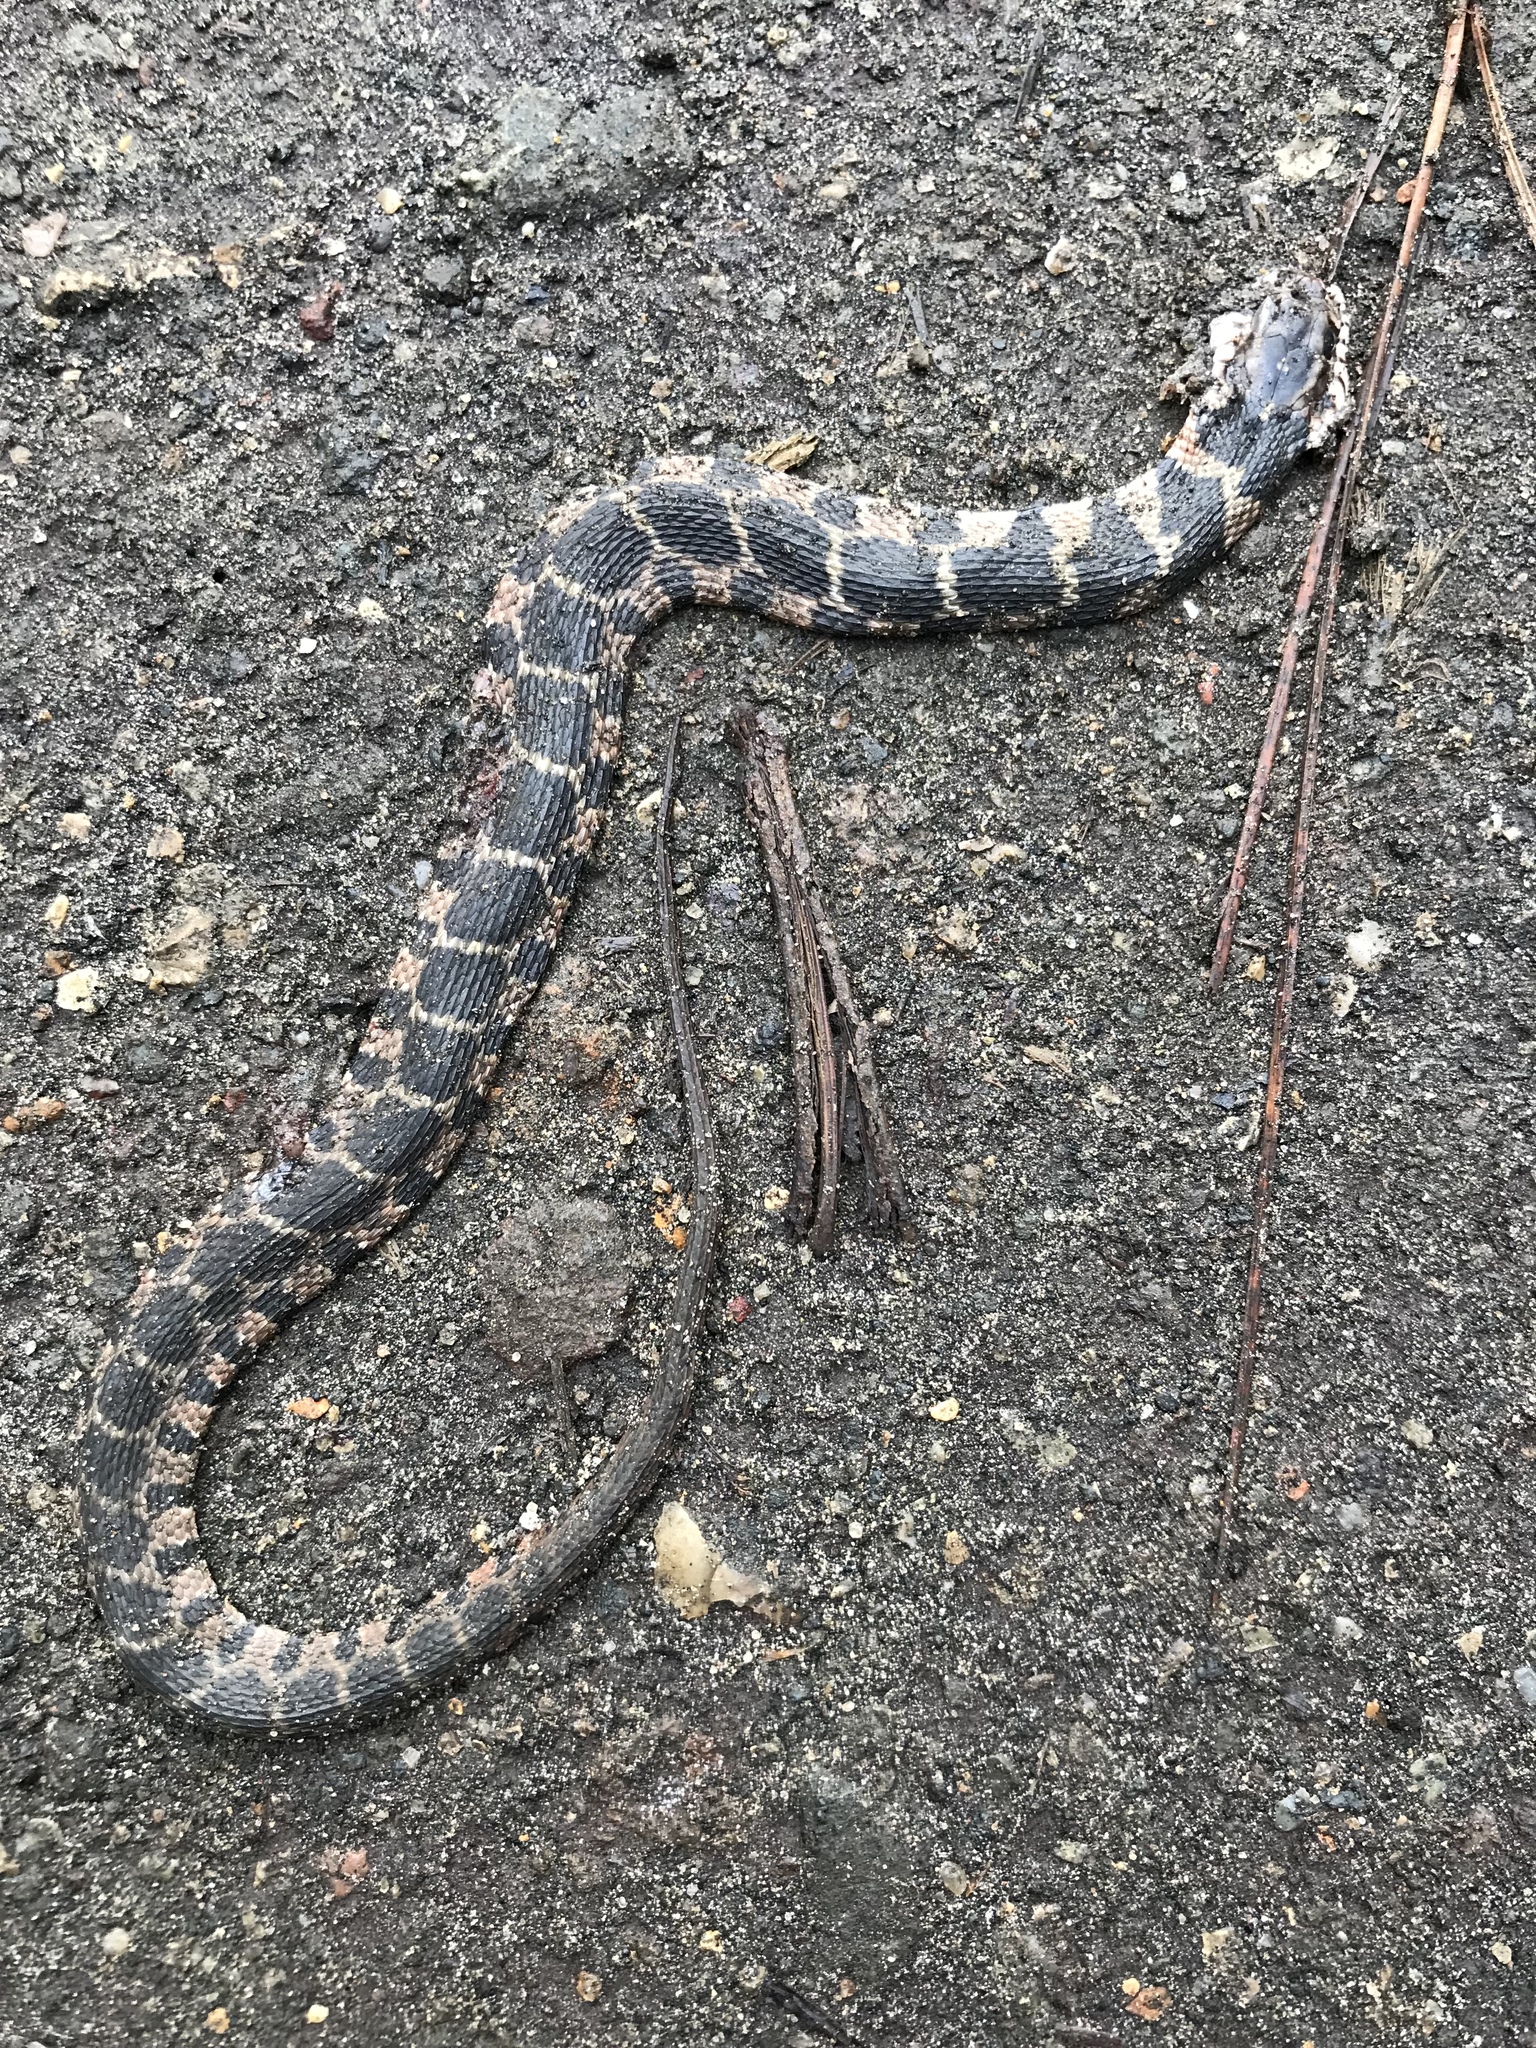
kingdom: Animalia
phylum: Chordata
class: Squamata
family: Colubridae
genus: Nerodia
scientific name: Nerodia erythrogaster
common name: Plainbelly water snake
